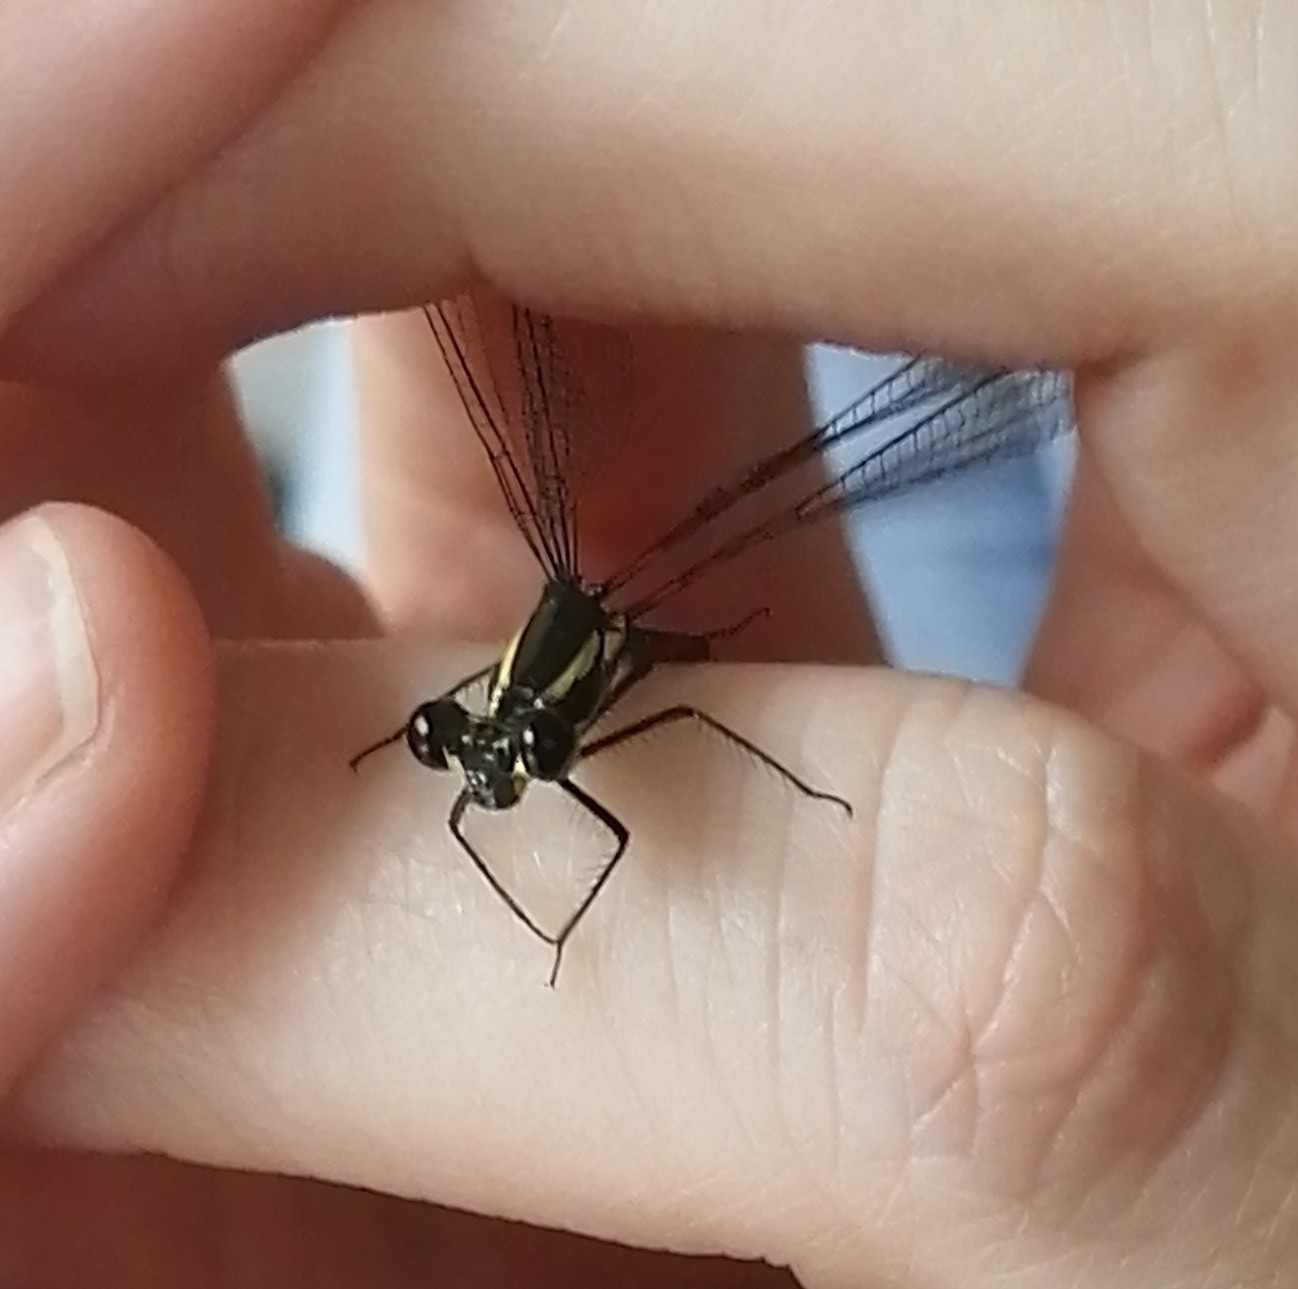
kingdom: Animalia
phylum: Arthropoda
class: Insecta
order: Odonata
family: Argiolestidae
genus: Austroargiolestes
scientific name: Austroargiolestes icteromelas
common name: Common flatwing
